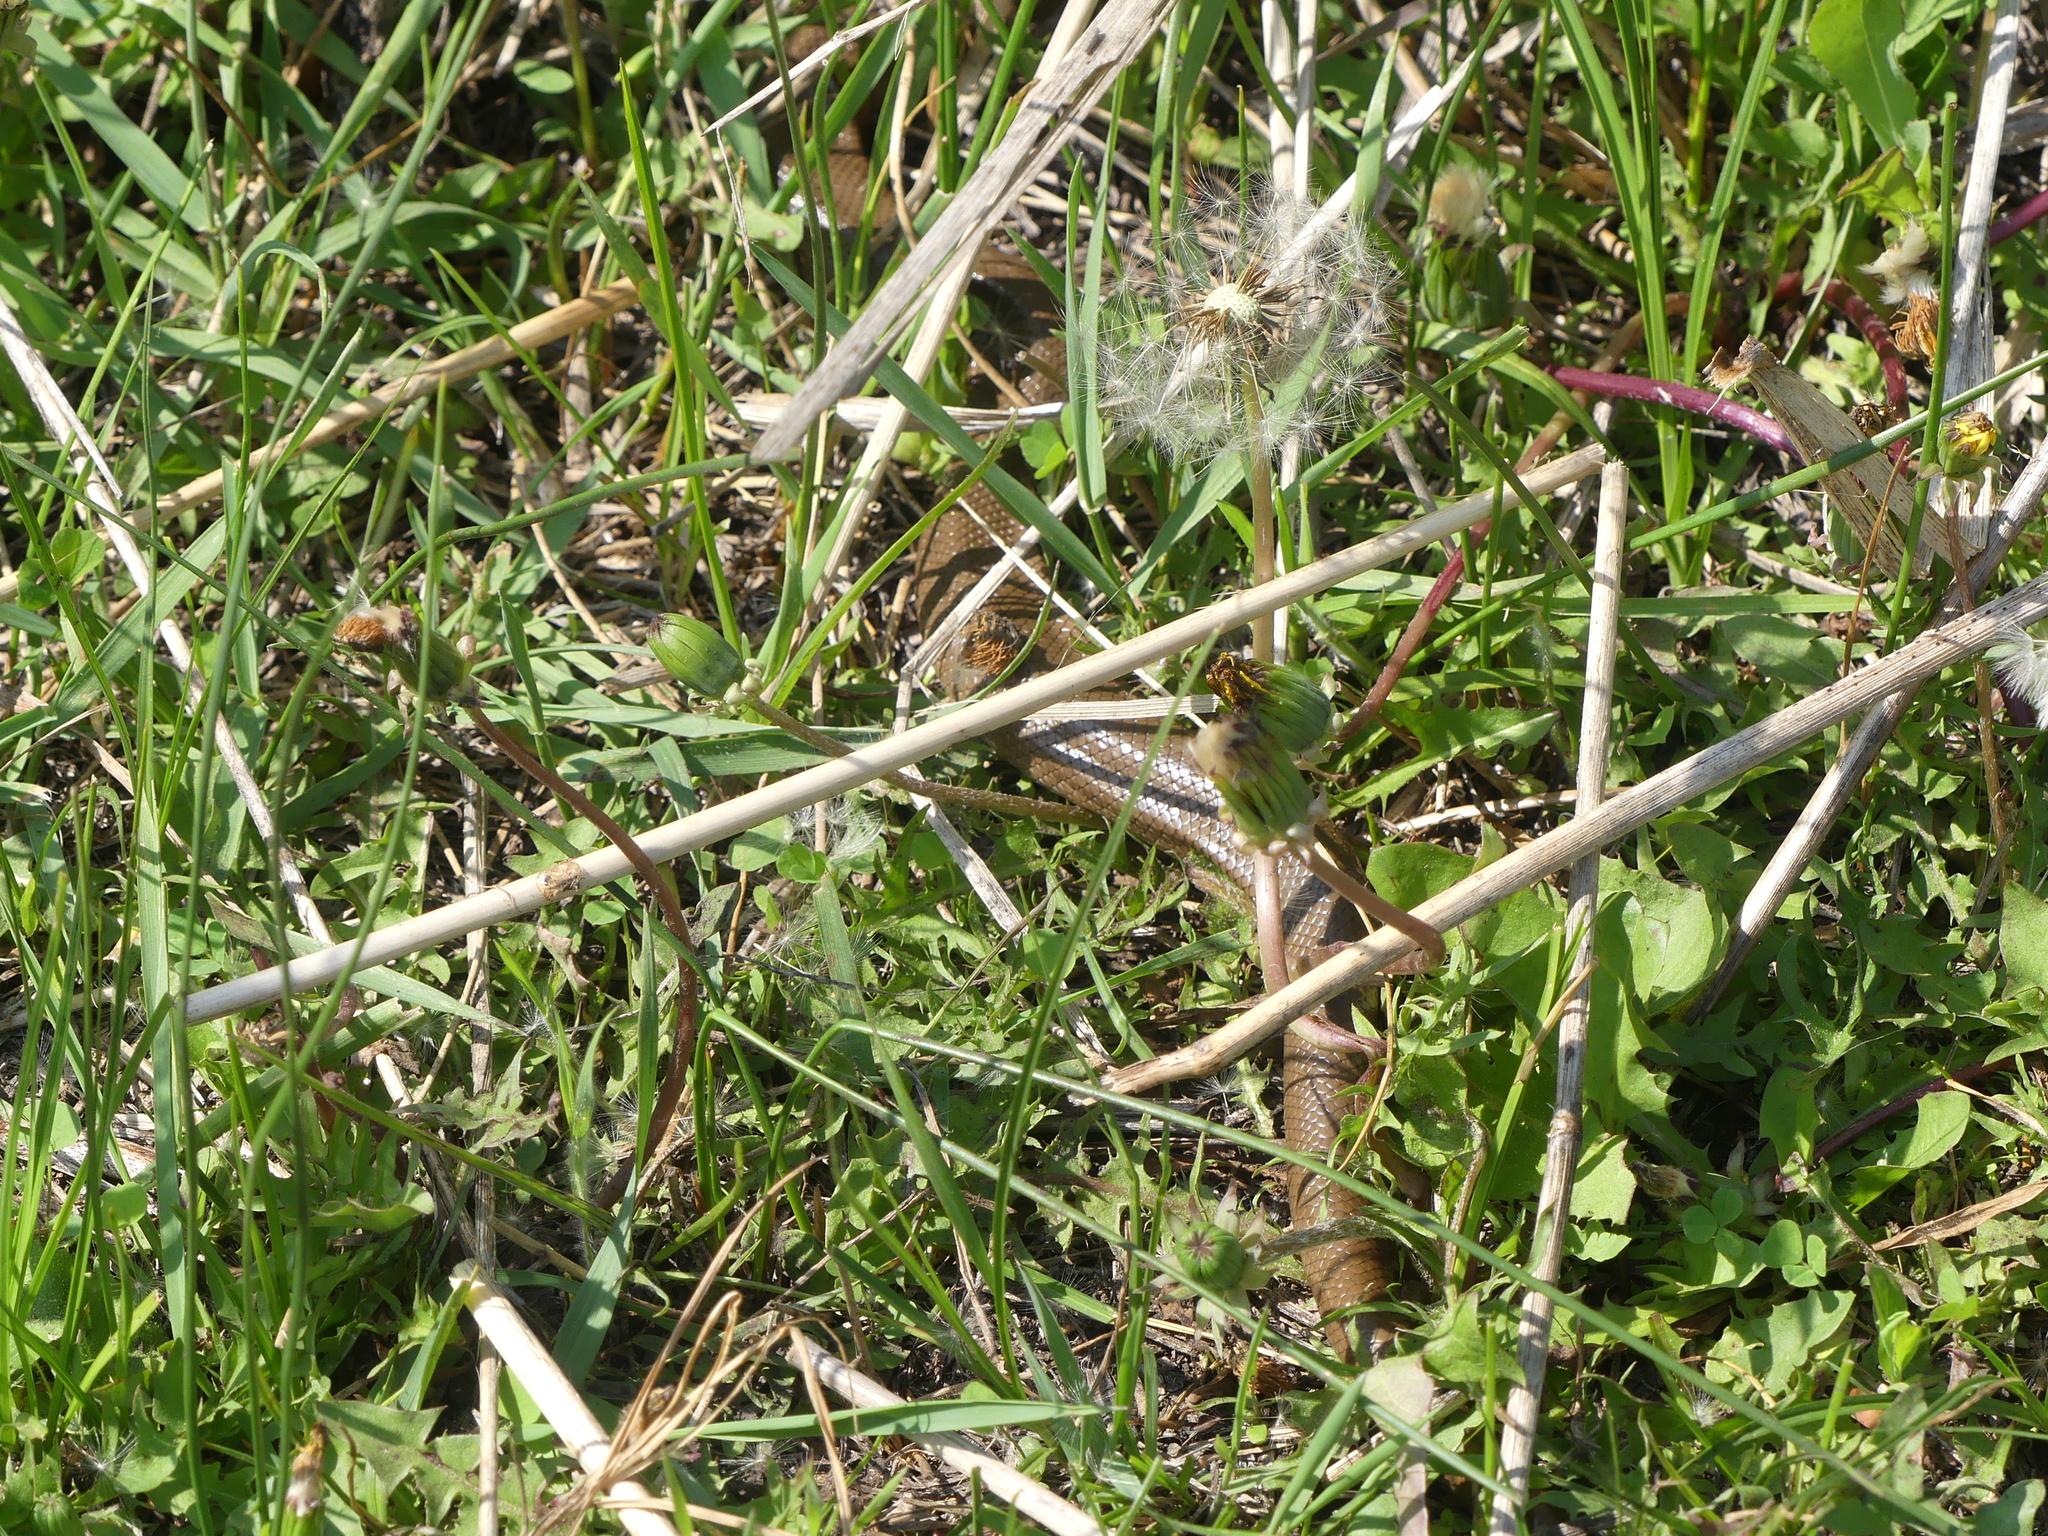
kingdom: Animalia
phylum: Chordata
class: Squamata
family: Boidae
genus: Charina
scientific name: Charina bottae
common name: Northern rubber boa
